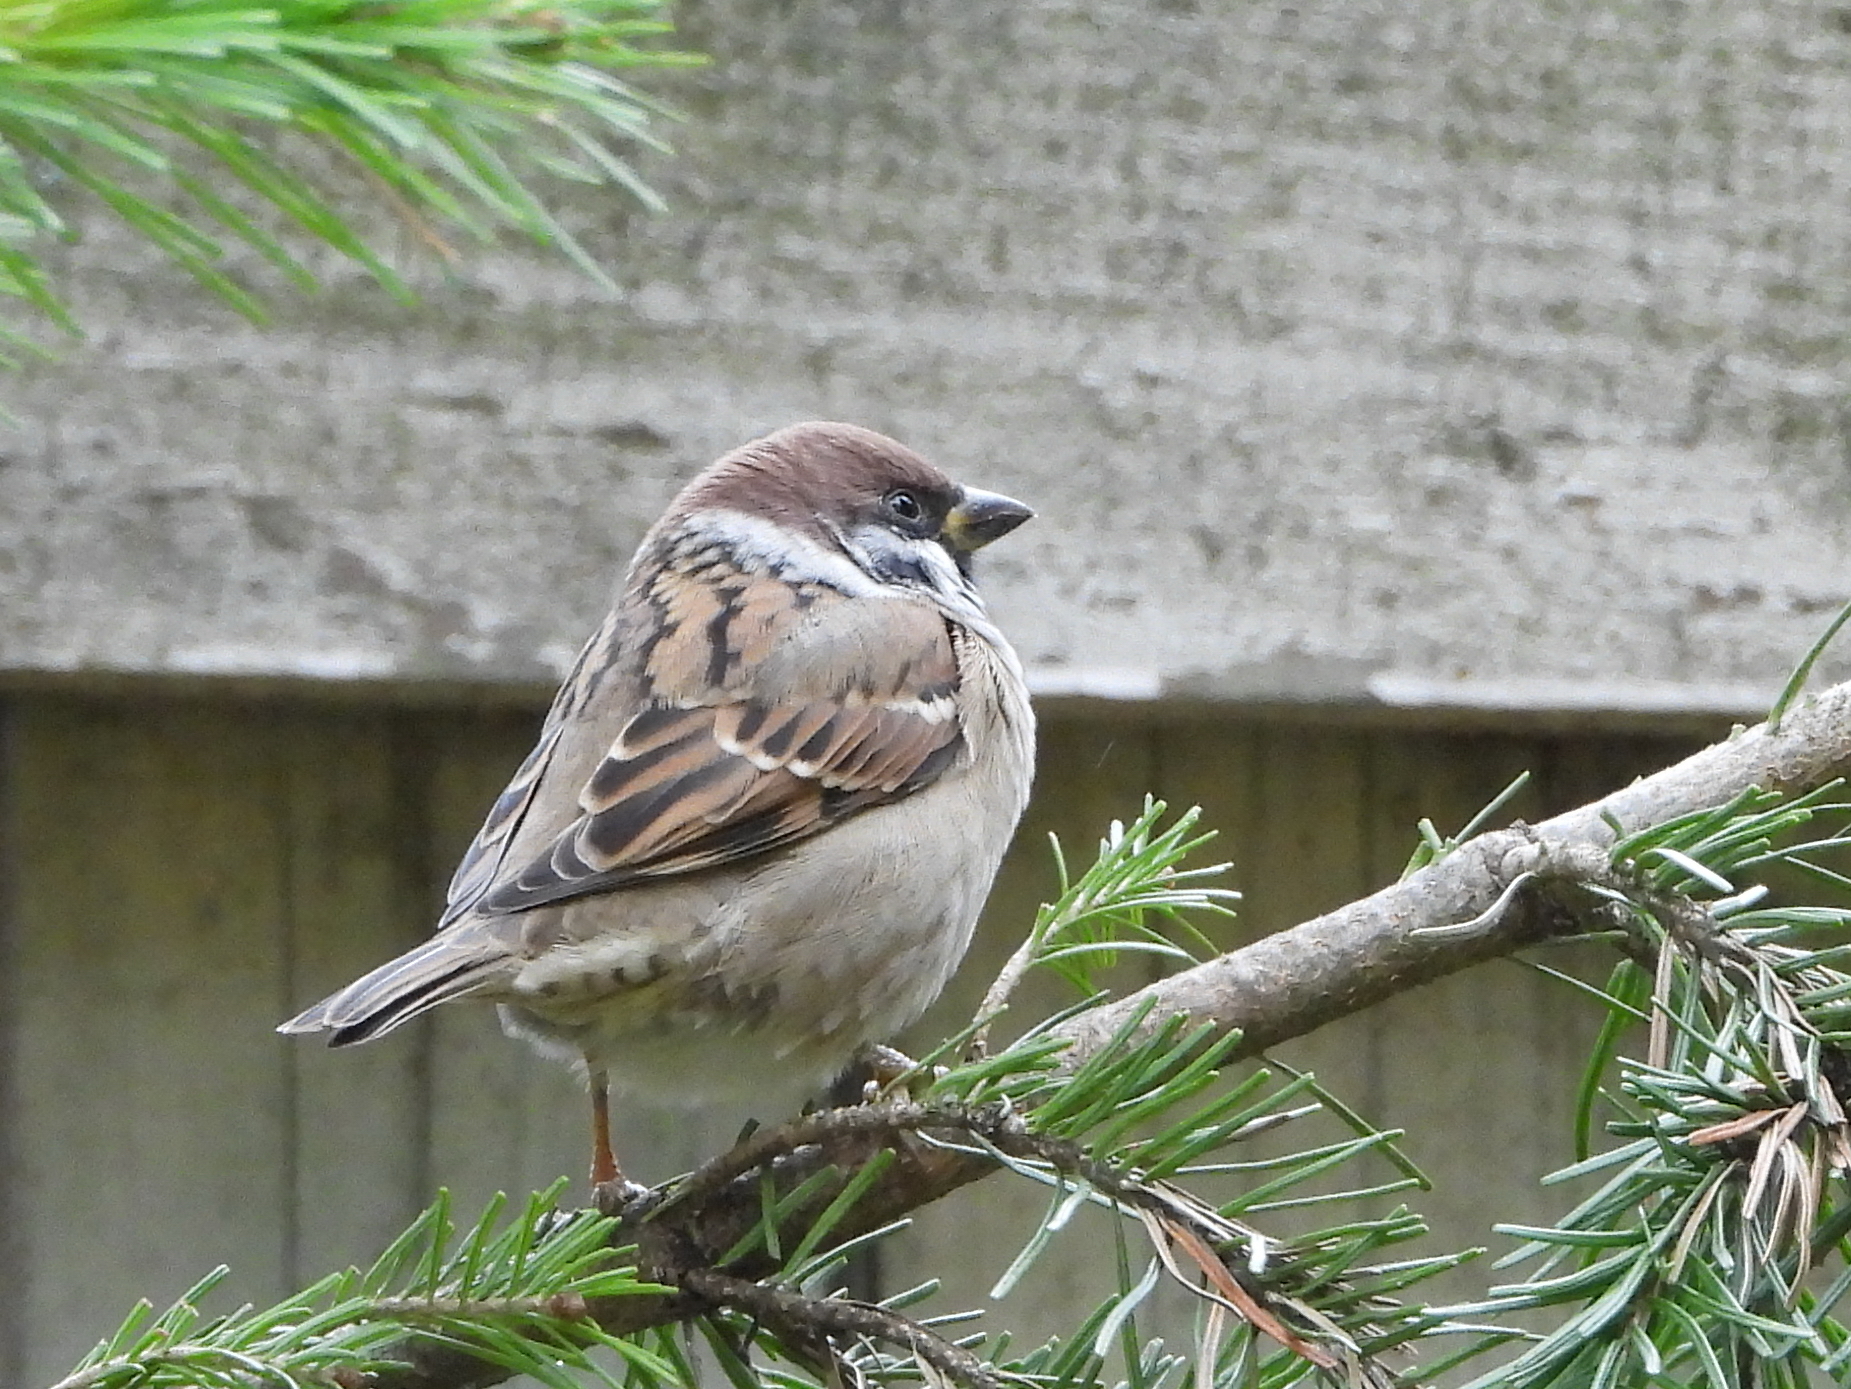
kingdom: Animalia
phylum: Chordata
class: Aves
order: Passeriformes
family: Passeridae
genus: Passer
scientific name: Passer montanus
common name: Eurasian tree sparrow
